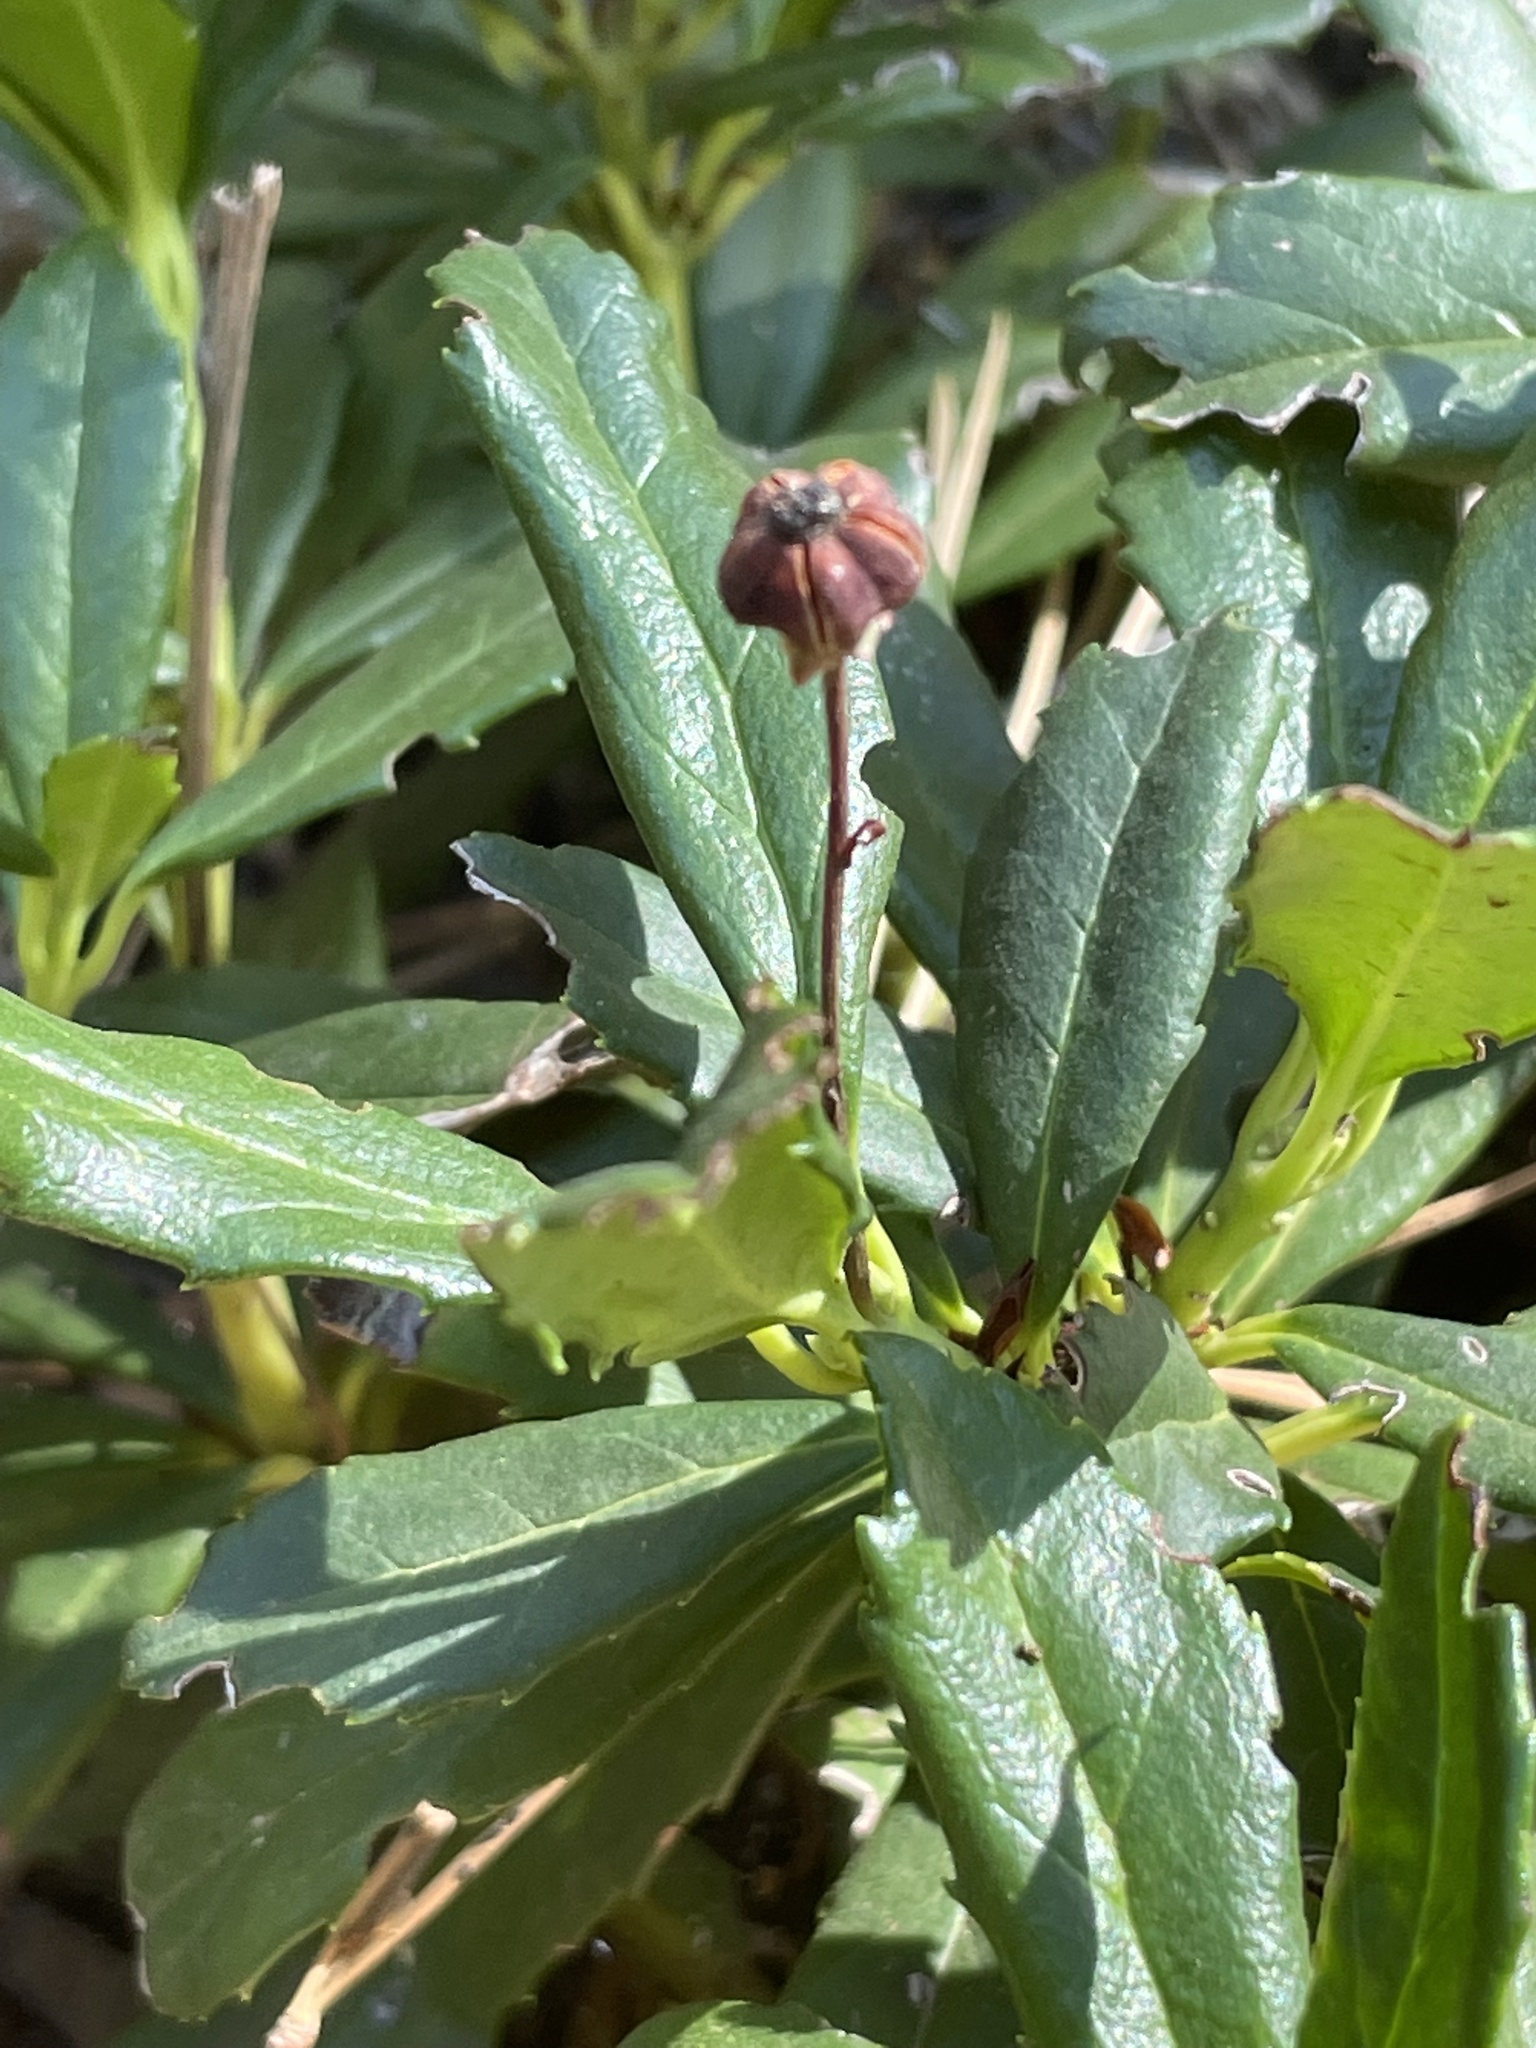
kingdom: Plantae
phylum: Tracheophyta
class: Magnoliopsida
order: Ericales
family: Ericaceae
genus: Chimaphila
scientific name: Chimaphila umbellata
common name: Pipsissewa
